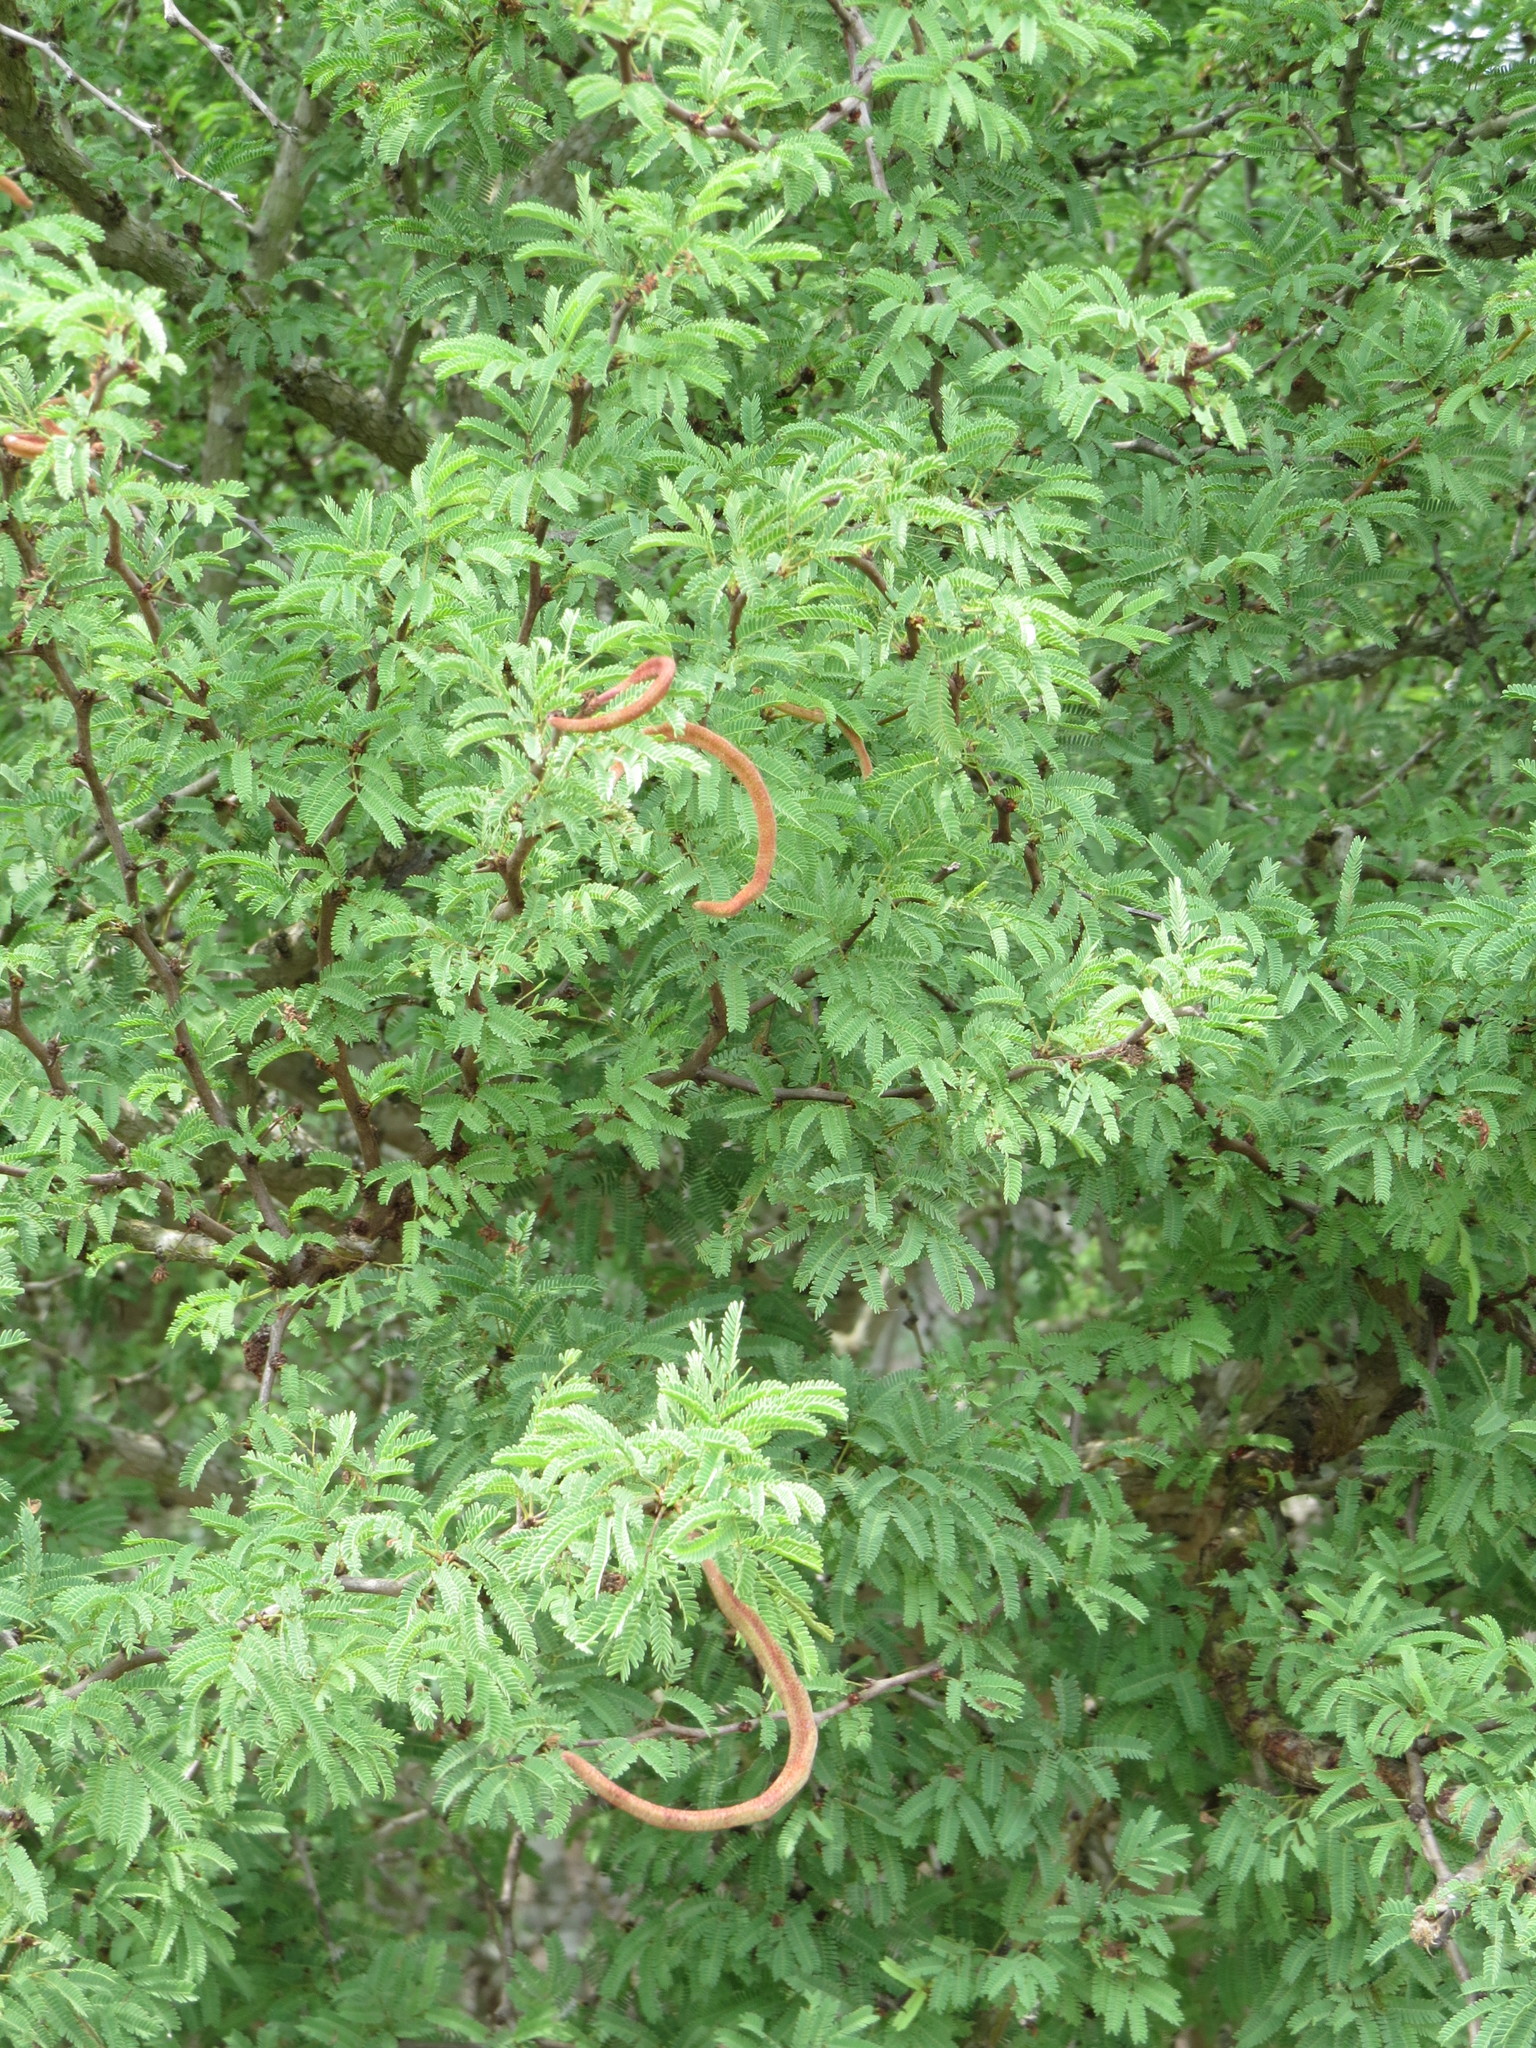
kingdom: Plantae
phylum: Tracheophyta
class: Magnoliopsida
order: Fabales
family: Fabaceae
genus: Vachellia
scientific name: Vachellia schaffneri
